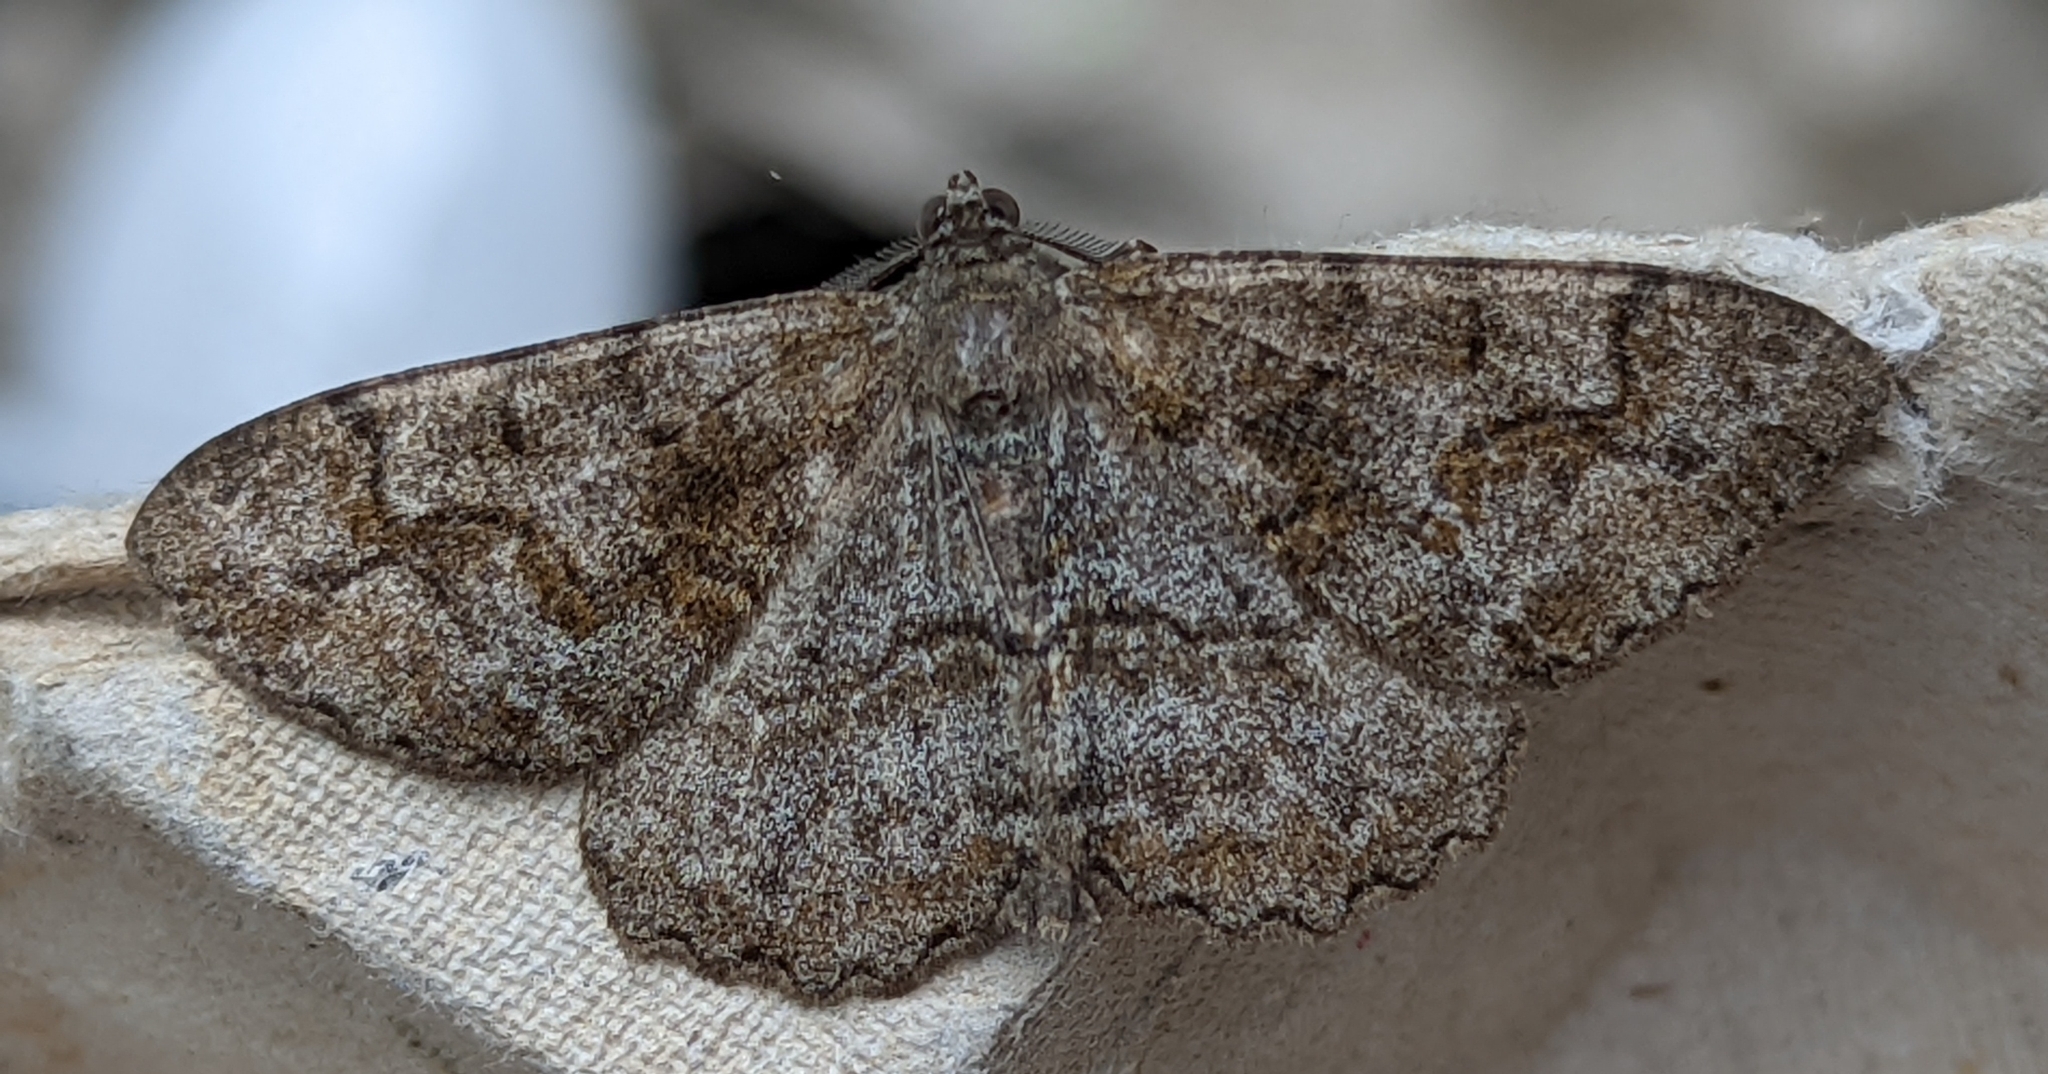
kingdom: Animalia
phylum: Arthropoda
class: Insecta
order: Lepidoptera
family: Geometridae
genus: Alcis
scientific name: Alcis repandata
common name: Mottled beauty
